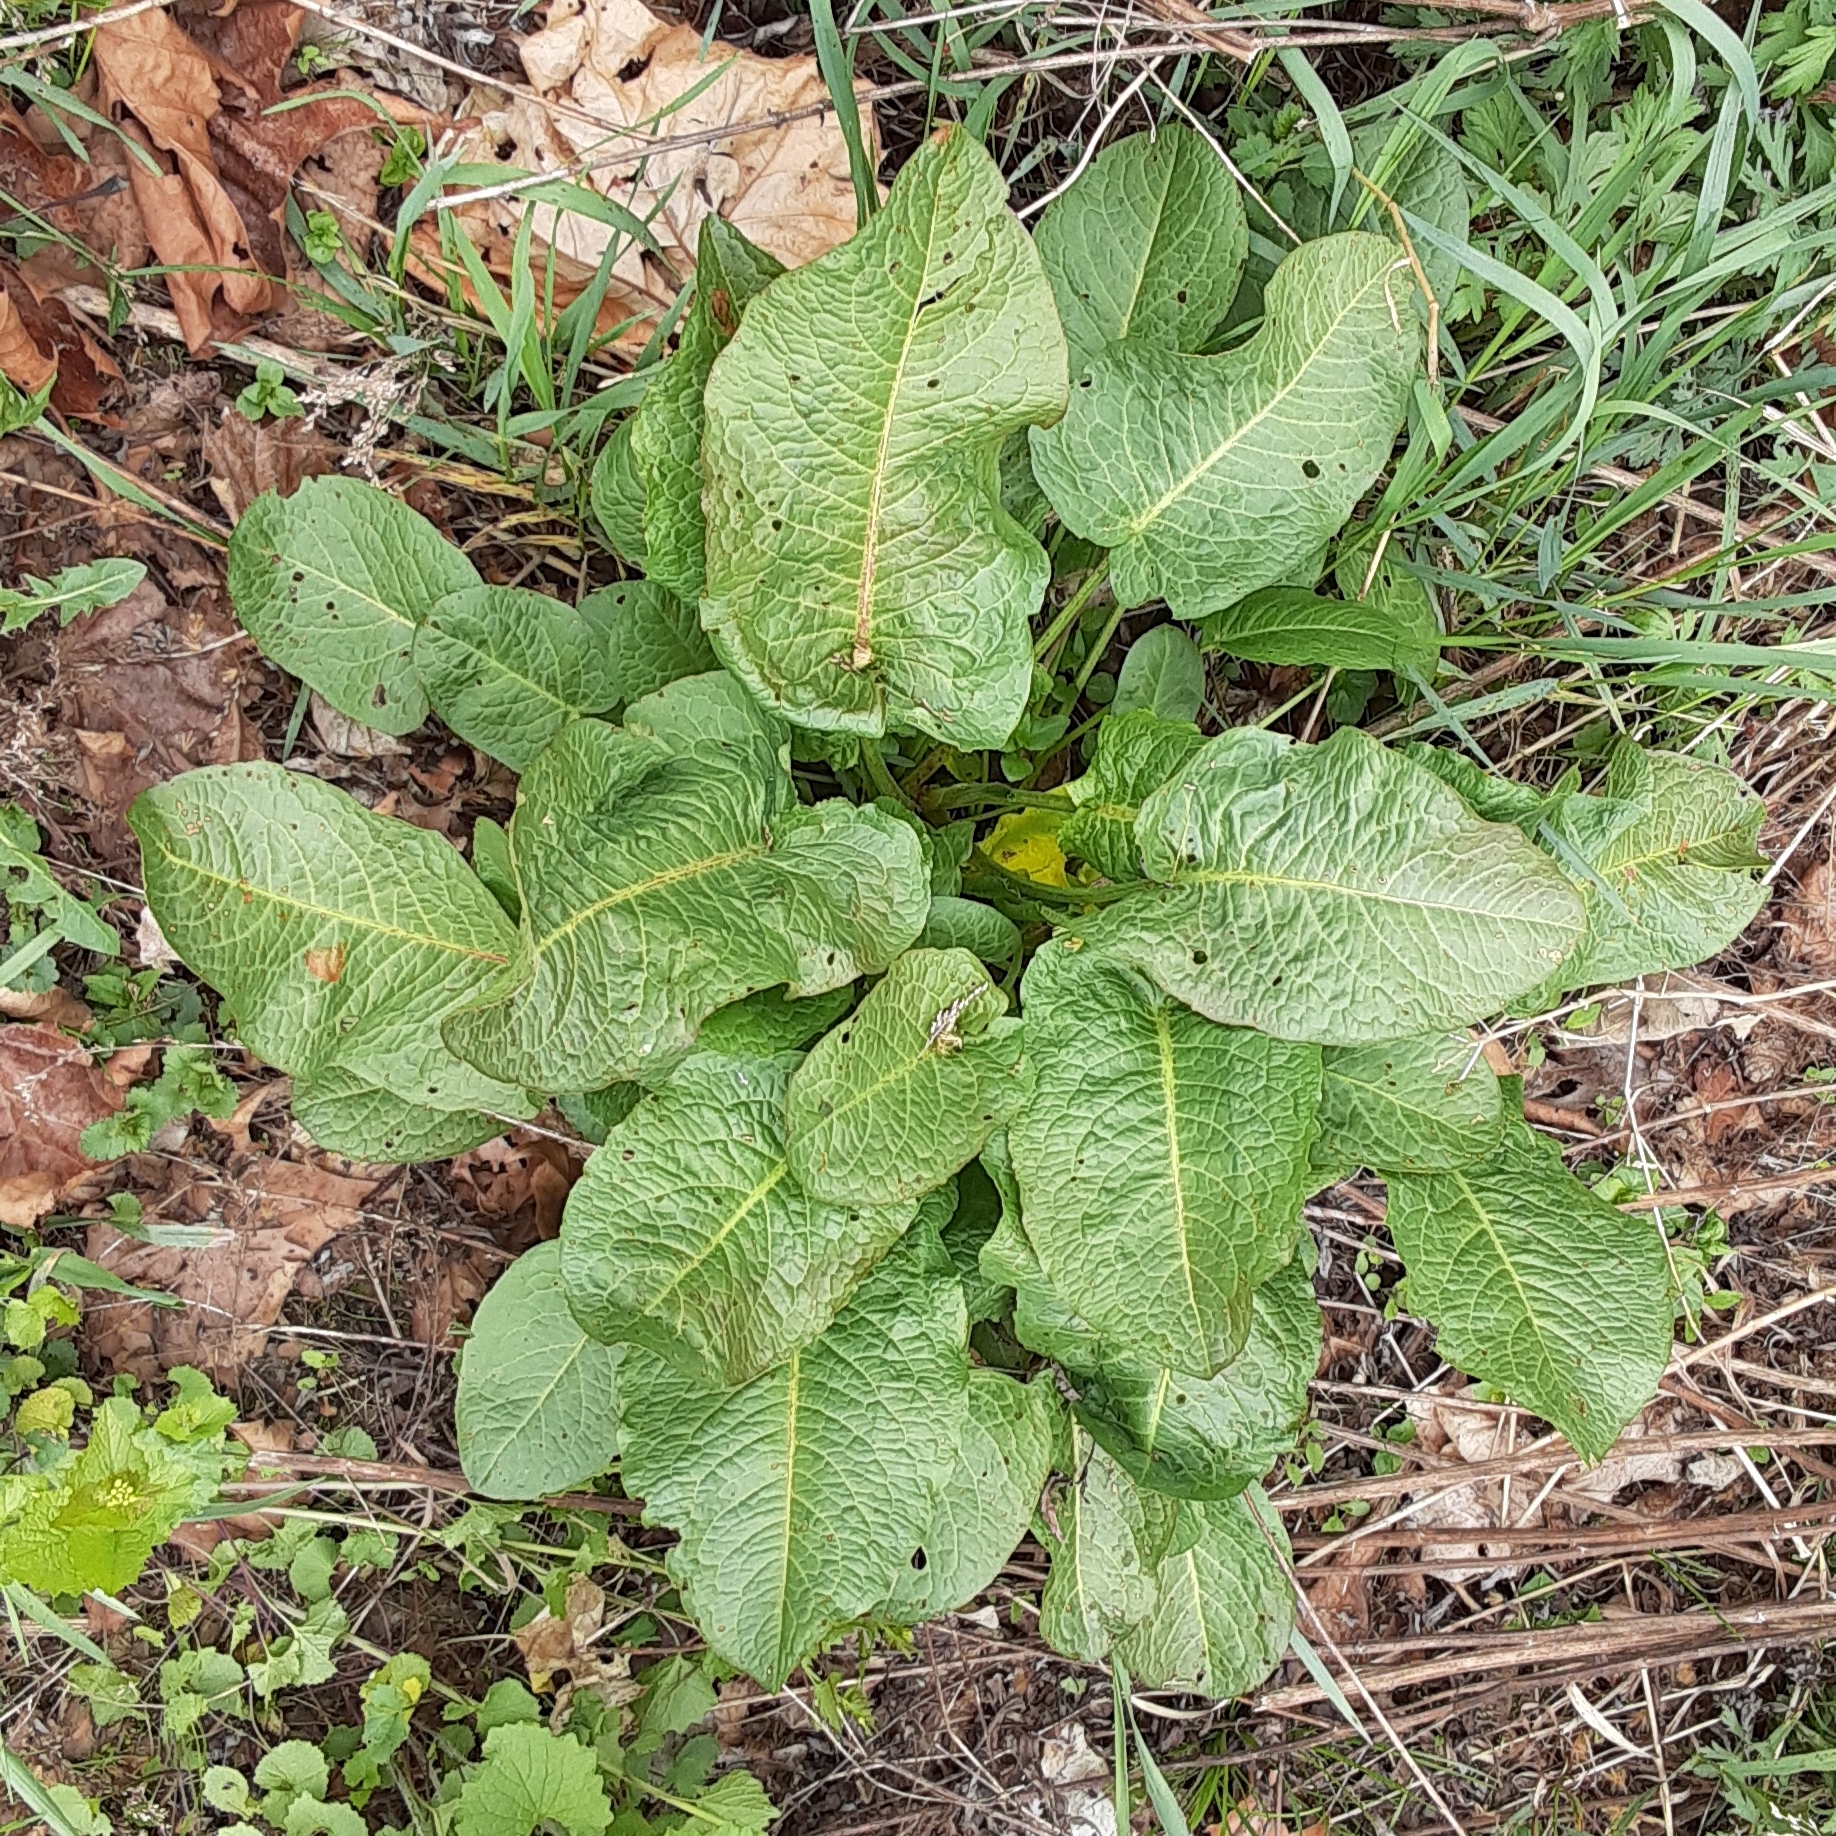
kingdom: Plantae
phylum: Tracheophyta
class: Magnoliopsida
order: Caryophyllales
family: Polygonaceae
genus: Rumex
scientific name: Rumex obtusifolius
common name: Bitter dock
